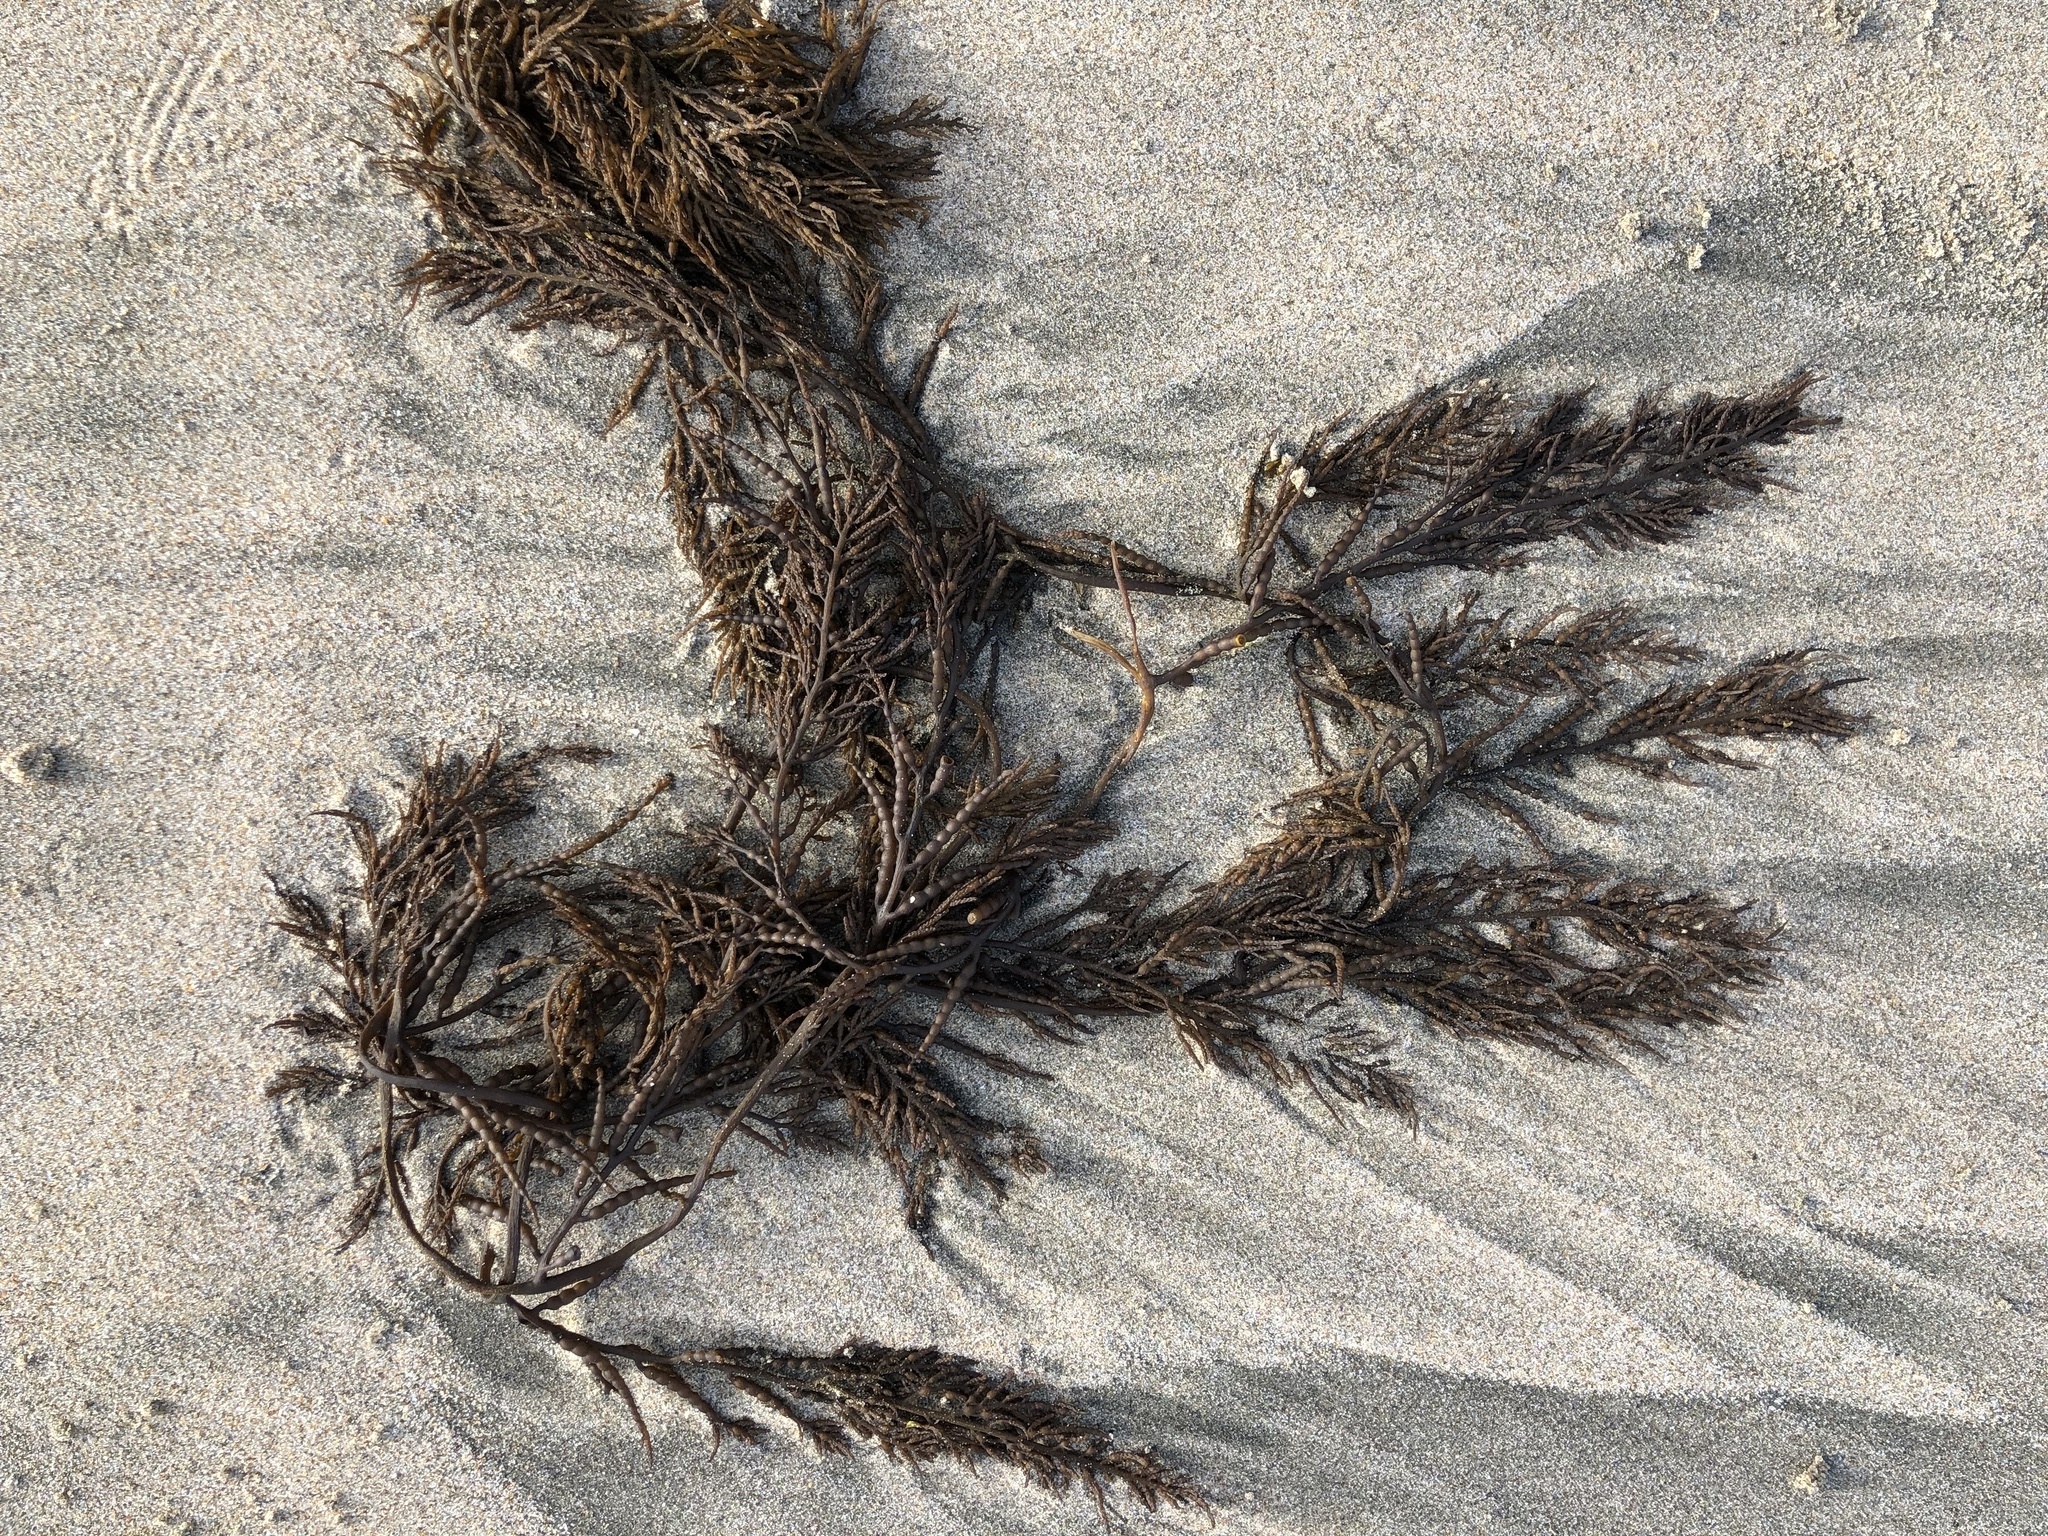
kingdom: Chromista
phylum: Ochrophyta
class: Phaeophyceae
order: Fucales
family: Sargassaceae
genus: Stephanocystis
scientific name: Stephanocystis
